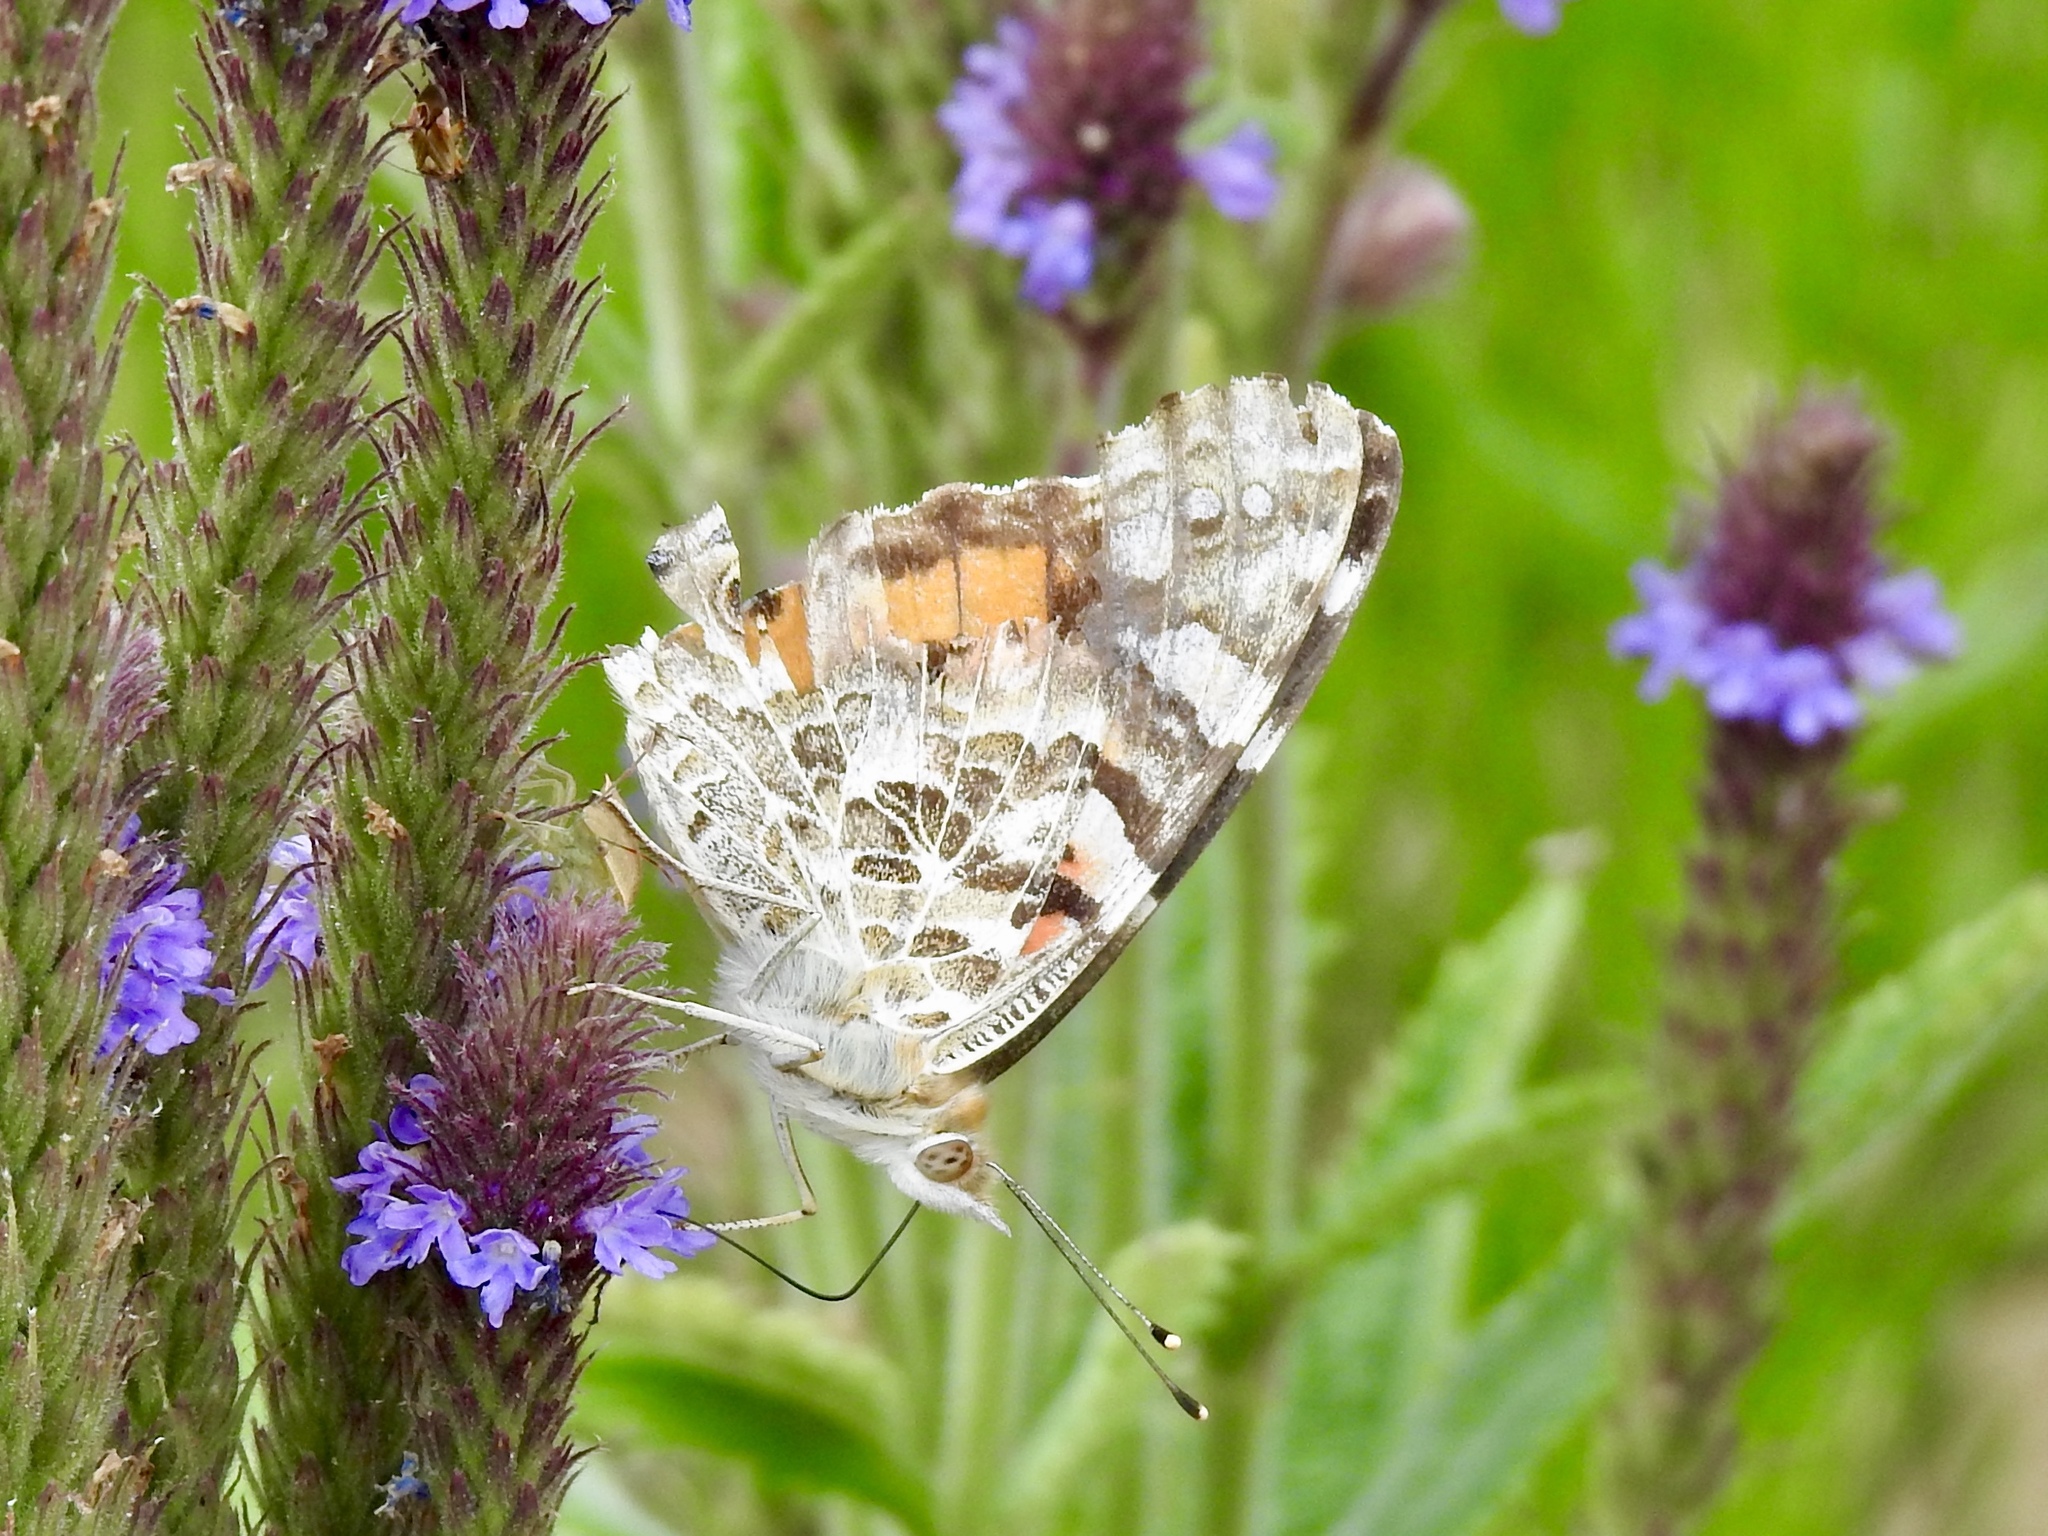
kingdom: Animalia
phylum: Arthropoda
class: Insecta
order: Lepidoptera
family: Nymphalidae
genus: Vanessa
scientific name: Vanessa cardui
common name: Painted lady
